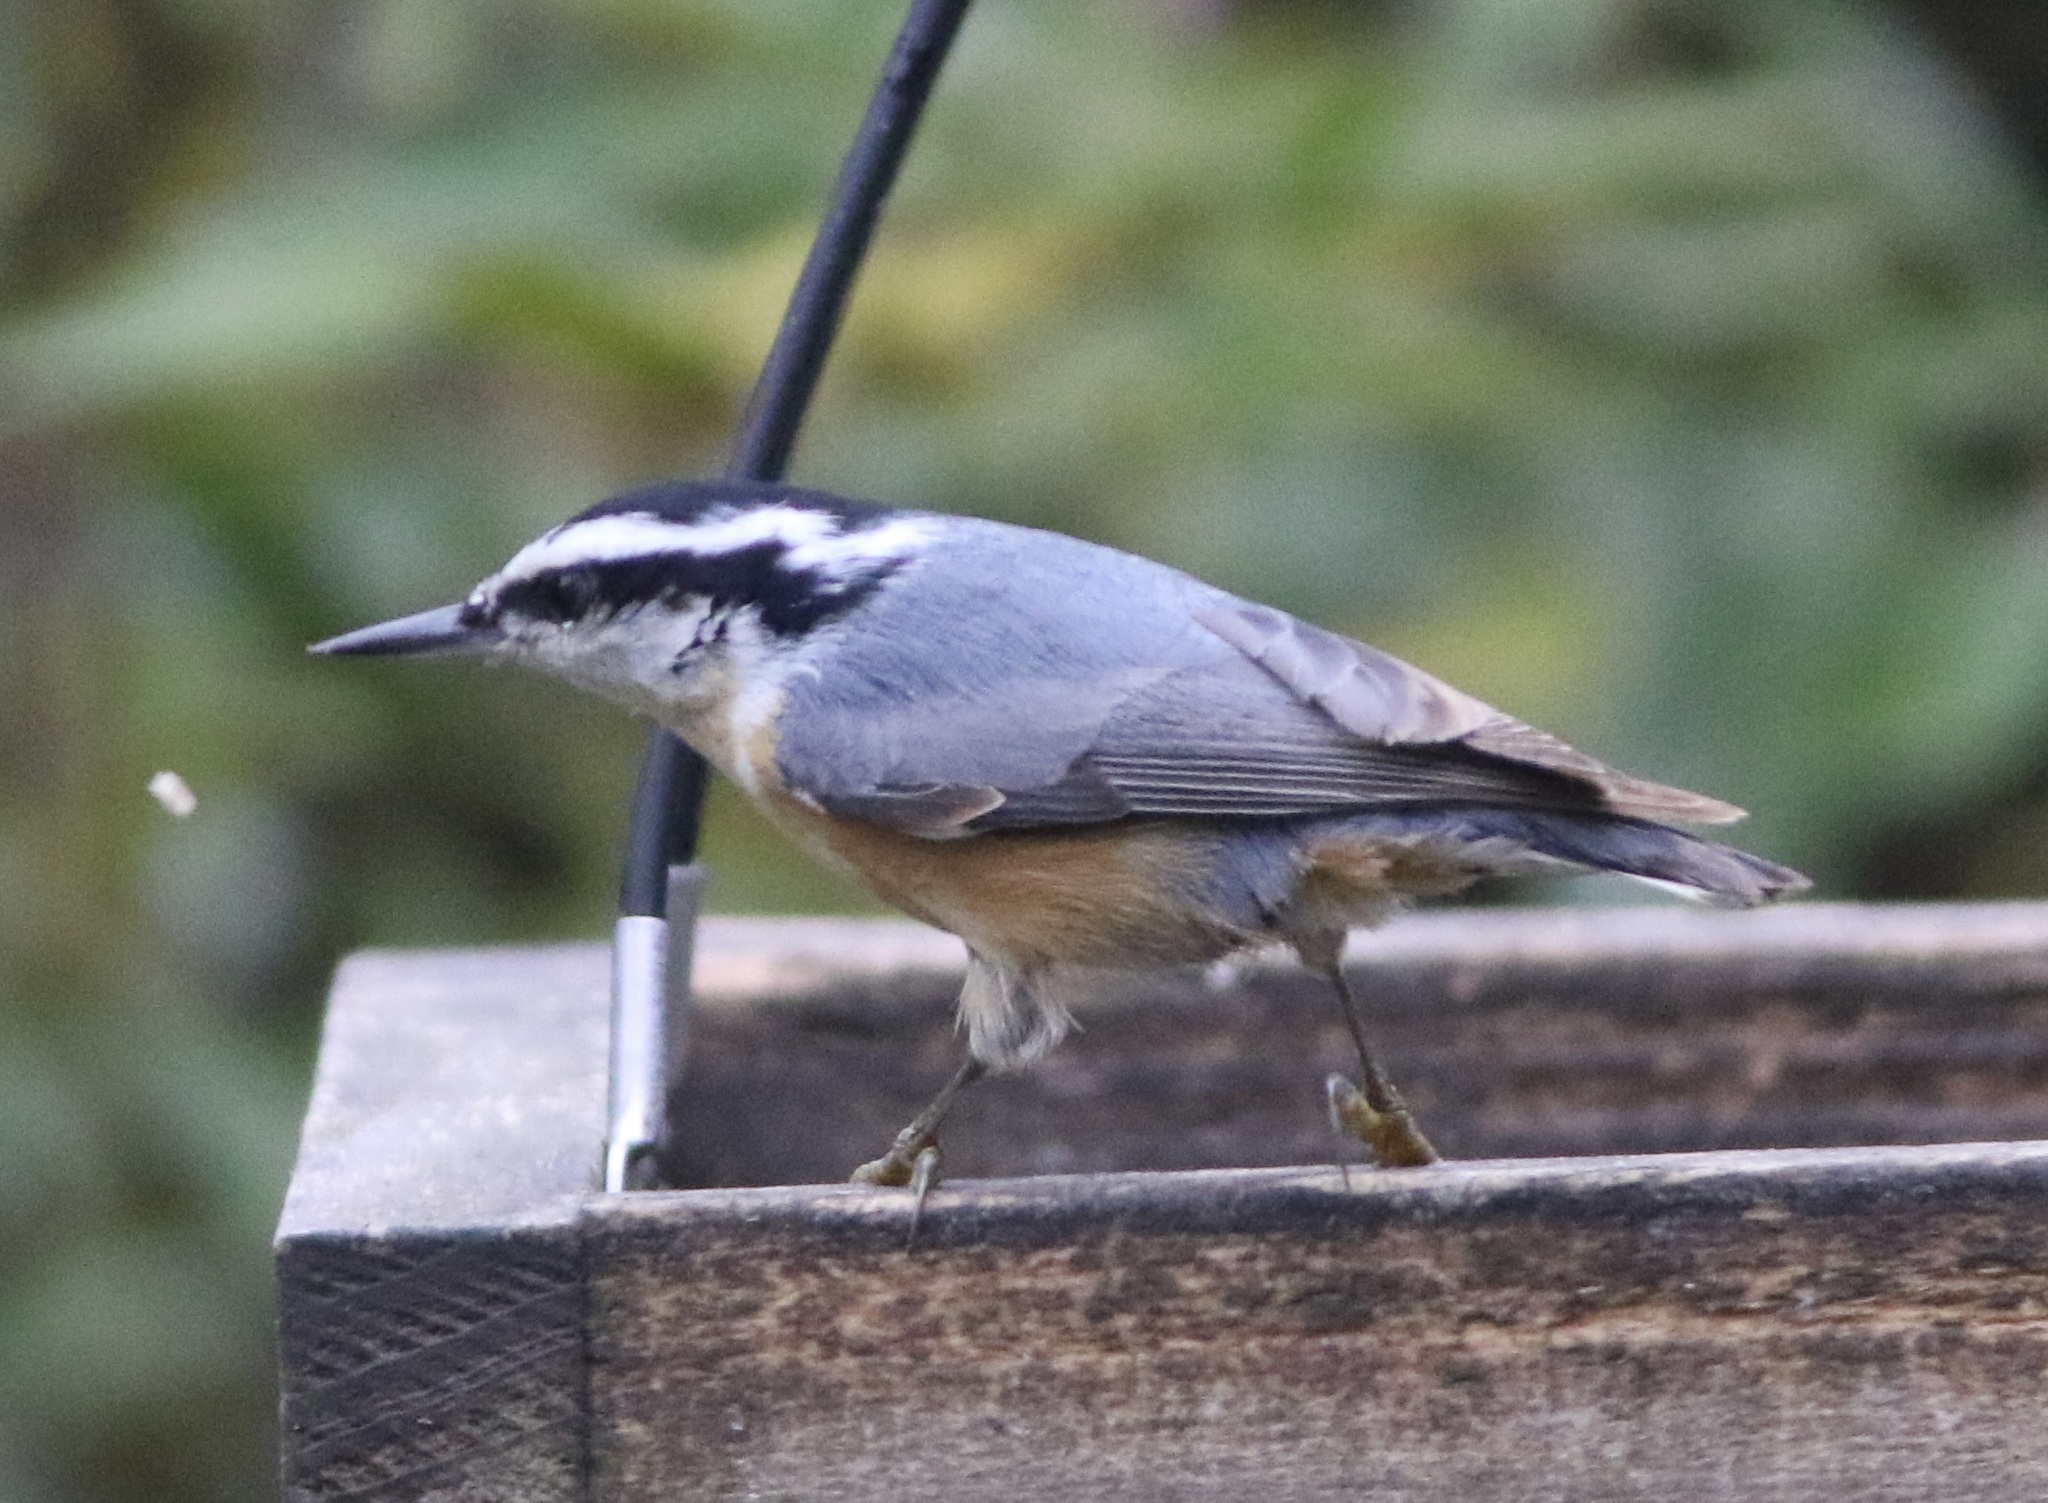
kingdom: Animalia
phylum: Chordata
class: Aves
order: Passeriformes
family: Sittidae
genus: Sitta
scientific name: Sitta canadensis
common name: Red-breasted nuthatch
